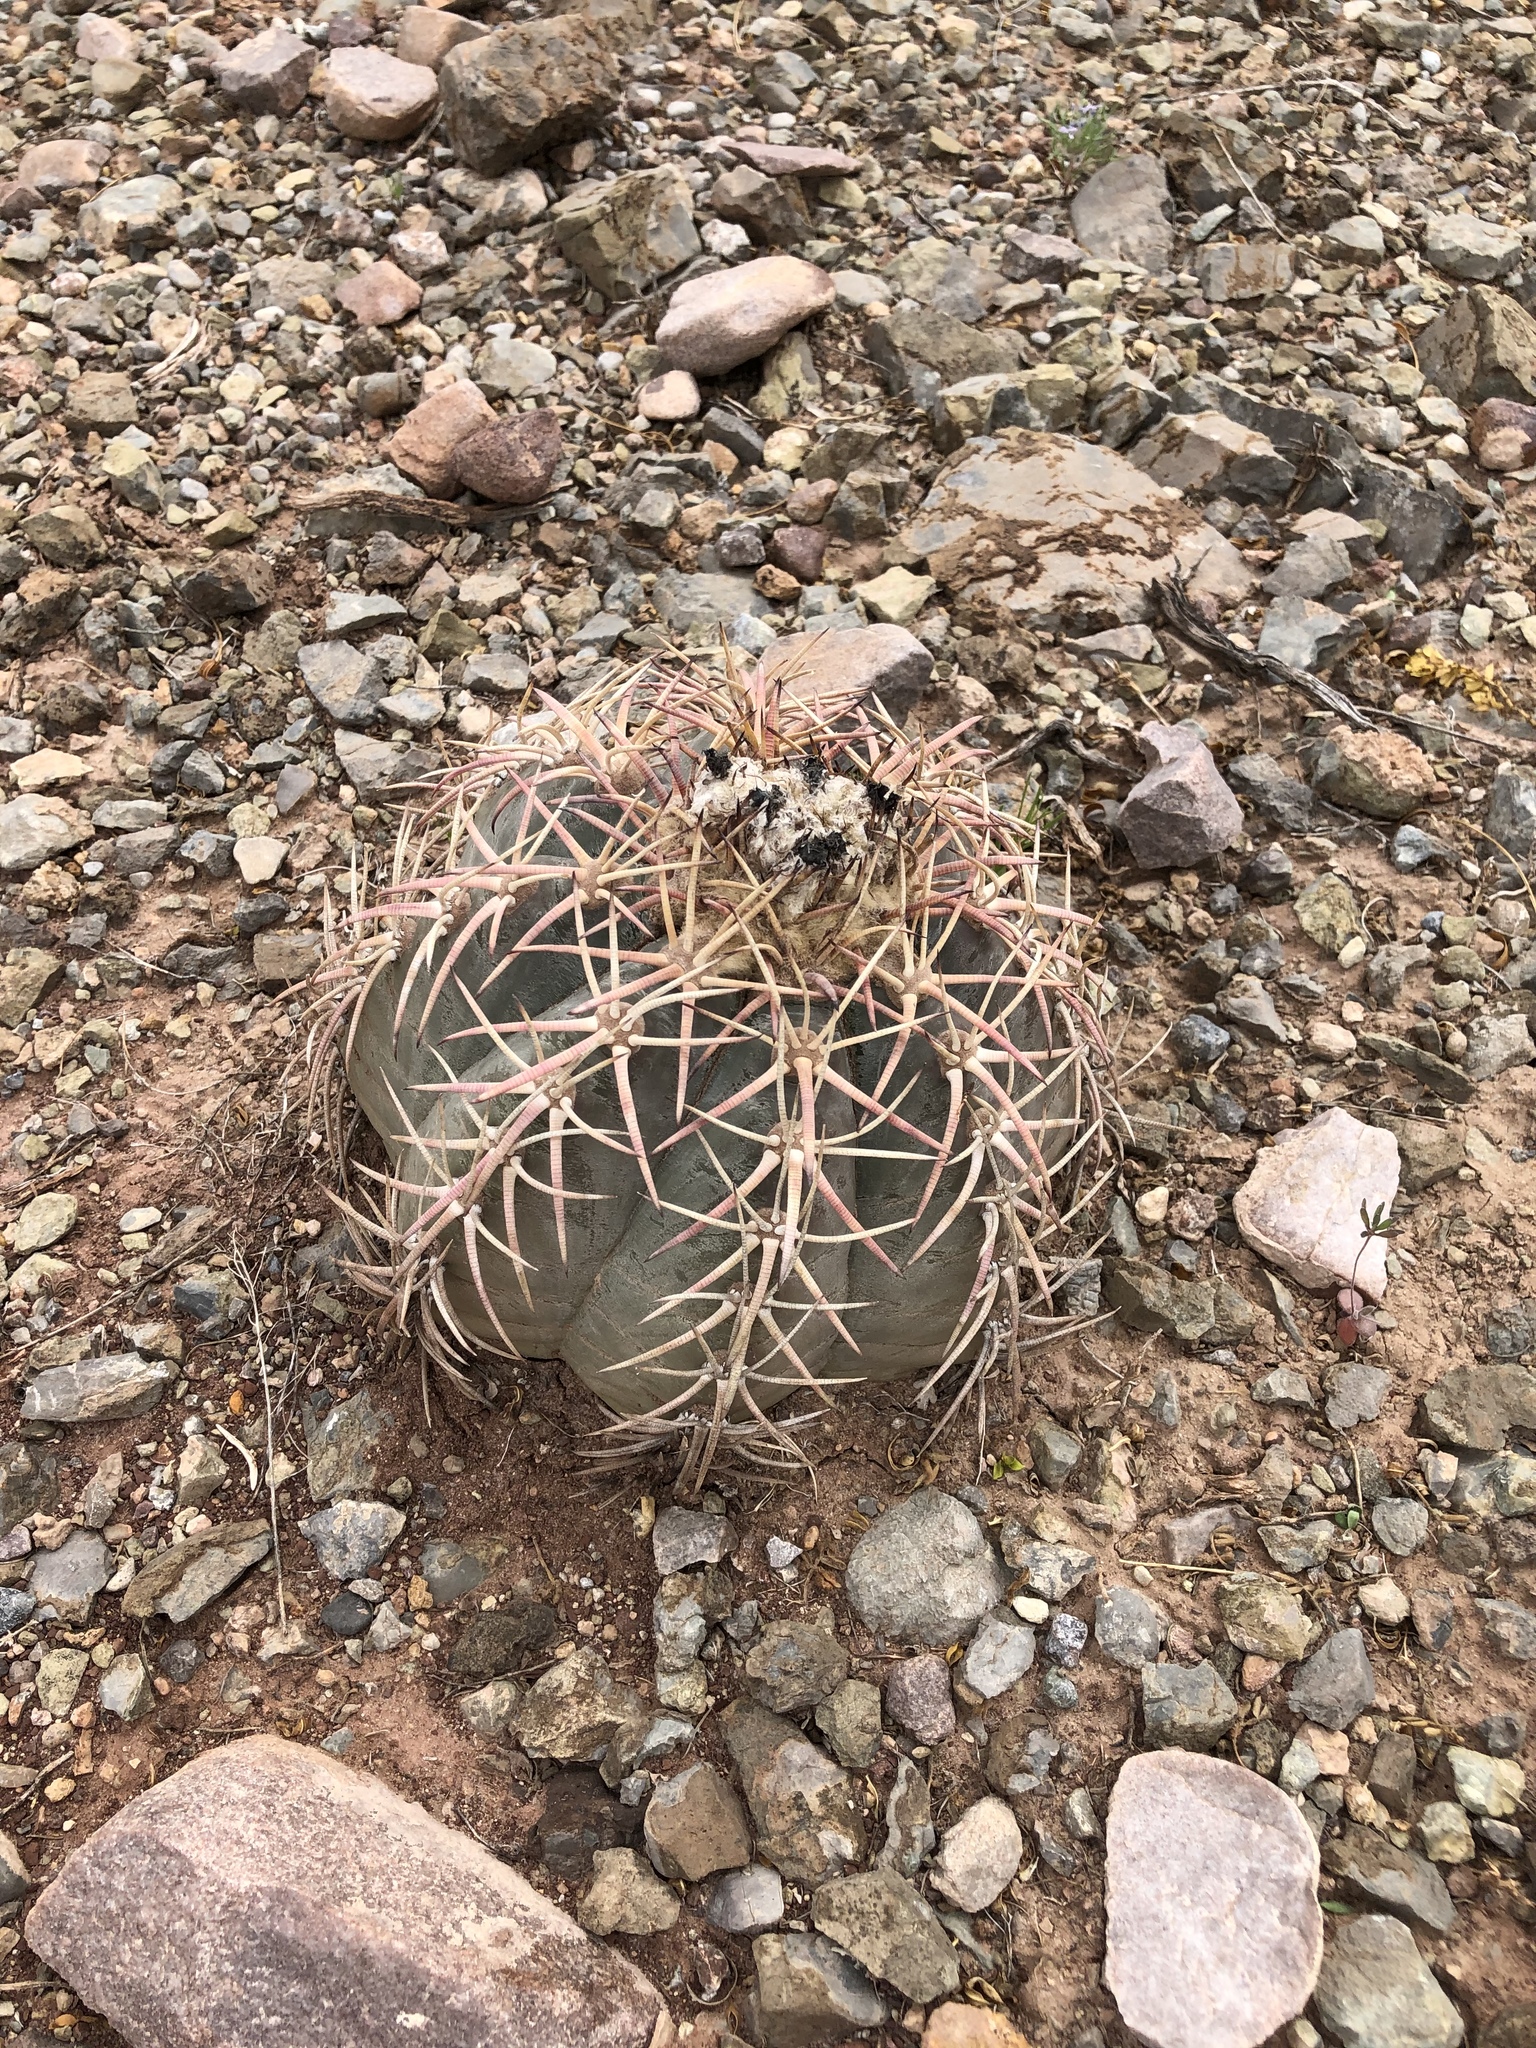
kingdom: Plantae
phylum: Tracheophyta
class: Magnoliopsida
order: Caryophyllales
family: Cactaceae
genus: Echinocactus
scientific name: Echinocactus horizonthalonius
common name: Devilshead
